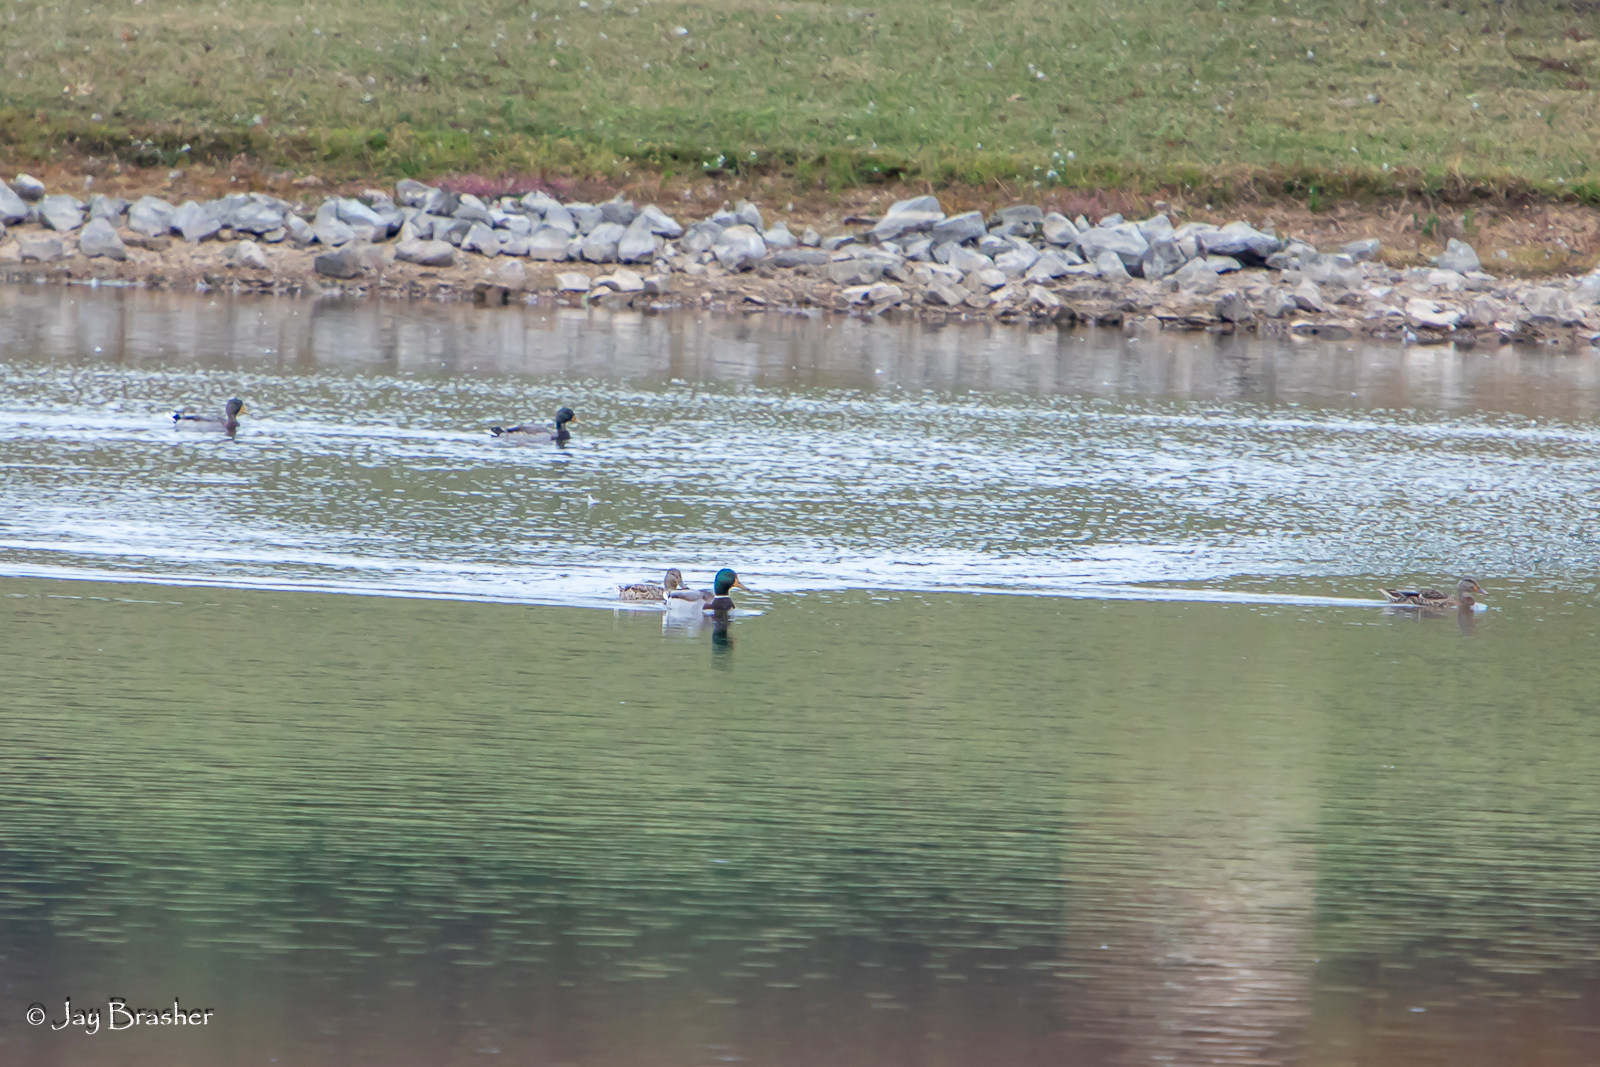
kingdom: Animalia
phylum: Chordata
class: Aves
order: Anseriformes
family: Anatidae
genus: Anas
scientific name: Anas platyrhynchos
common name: Mallard
